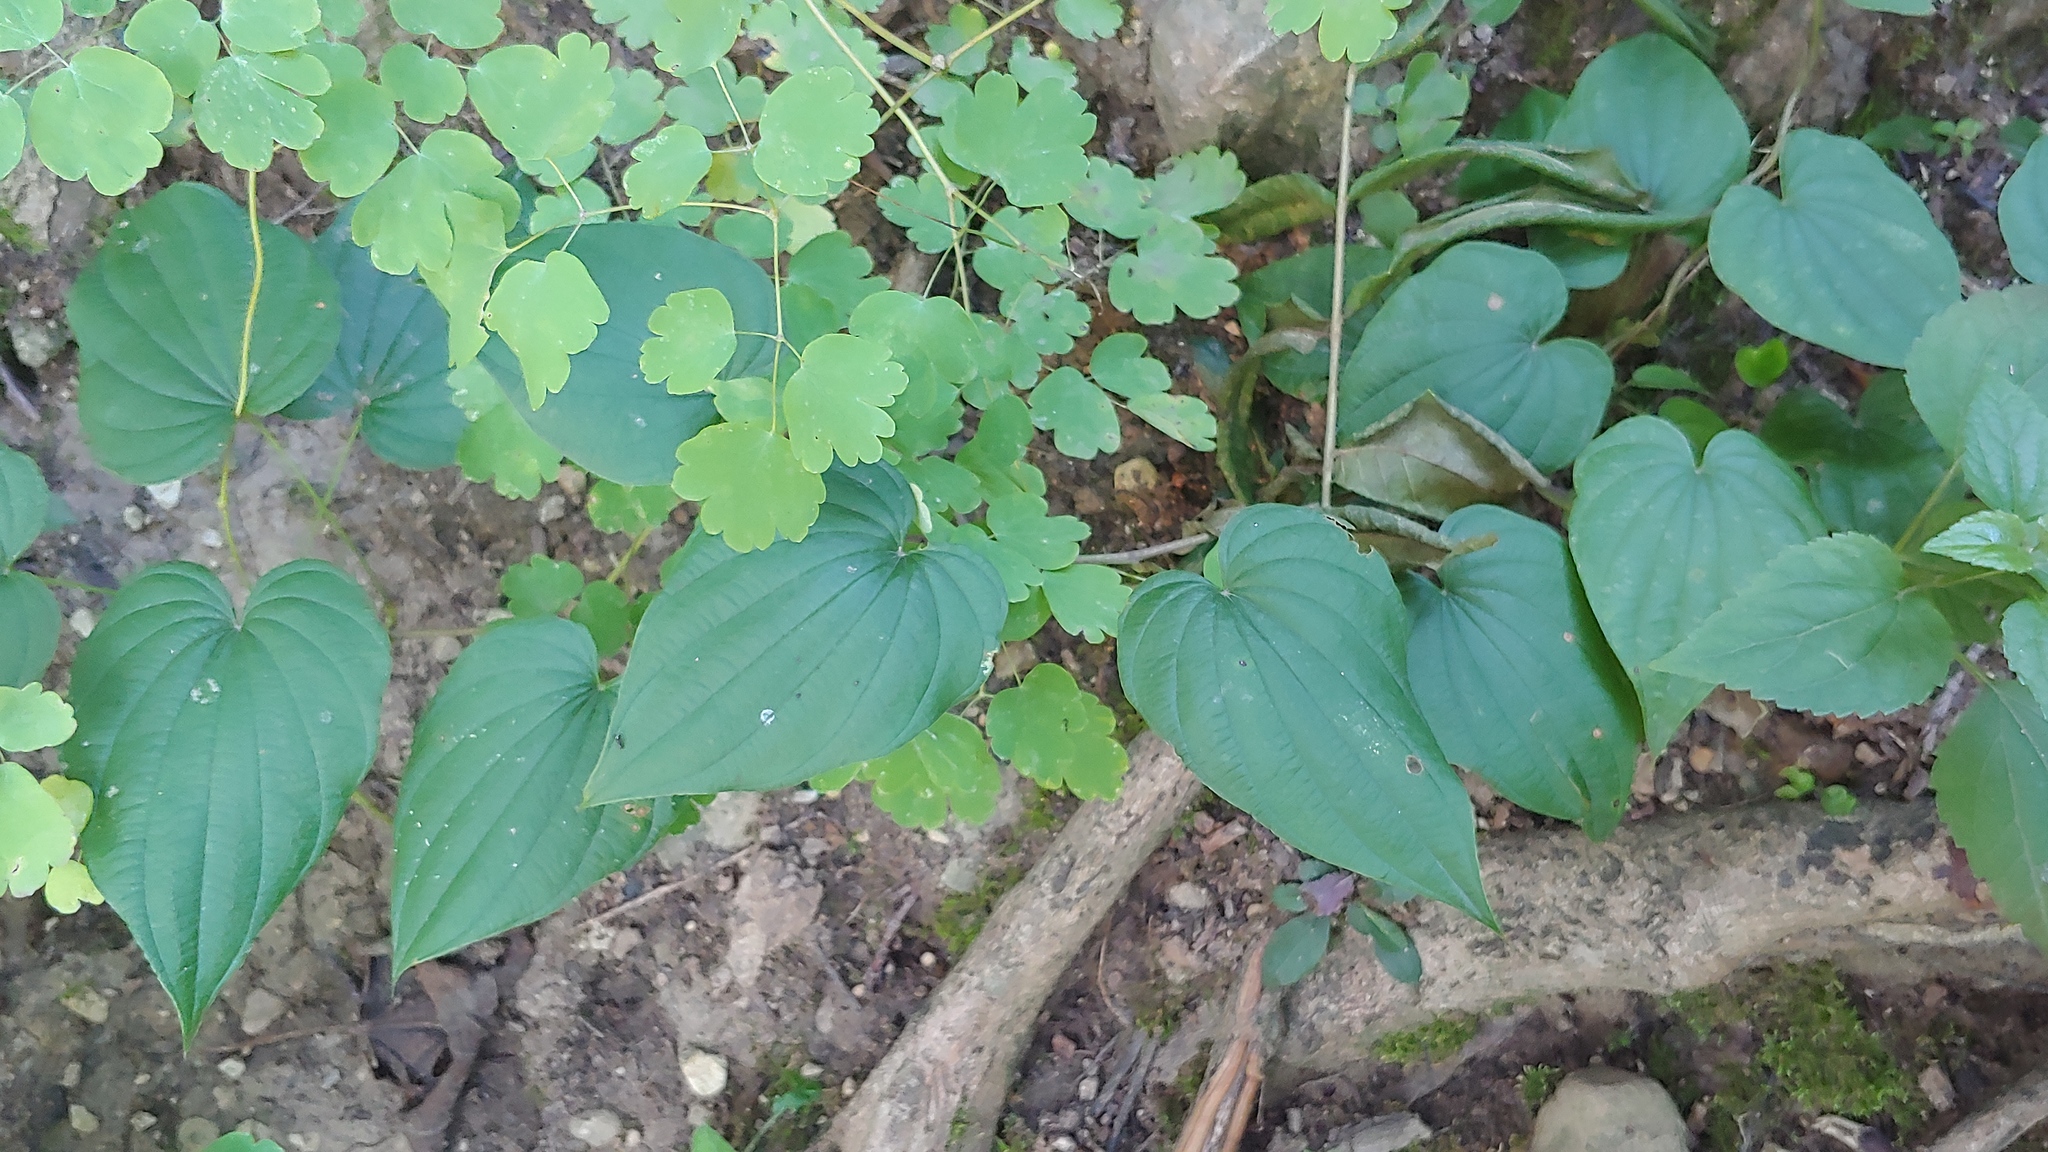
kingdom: Plantae
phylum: Tracheophyta
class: Liliopsida
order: Dioscoreales
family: Dioscoreaceae
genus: Dioscorea
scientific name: Dioscorea villosa
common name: Wild yam
